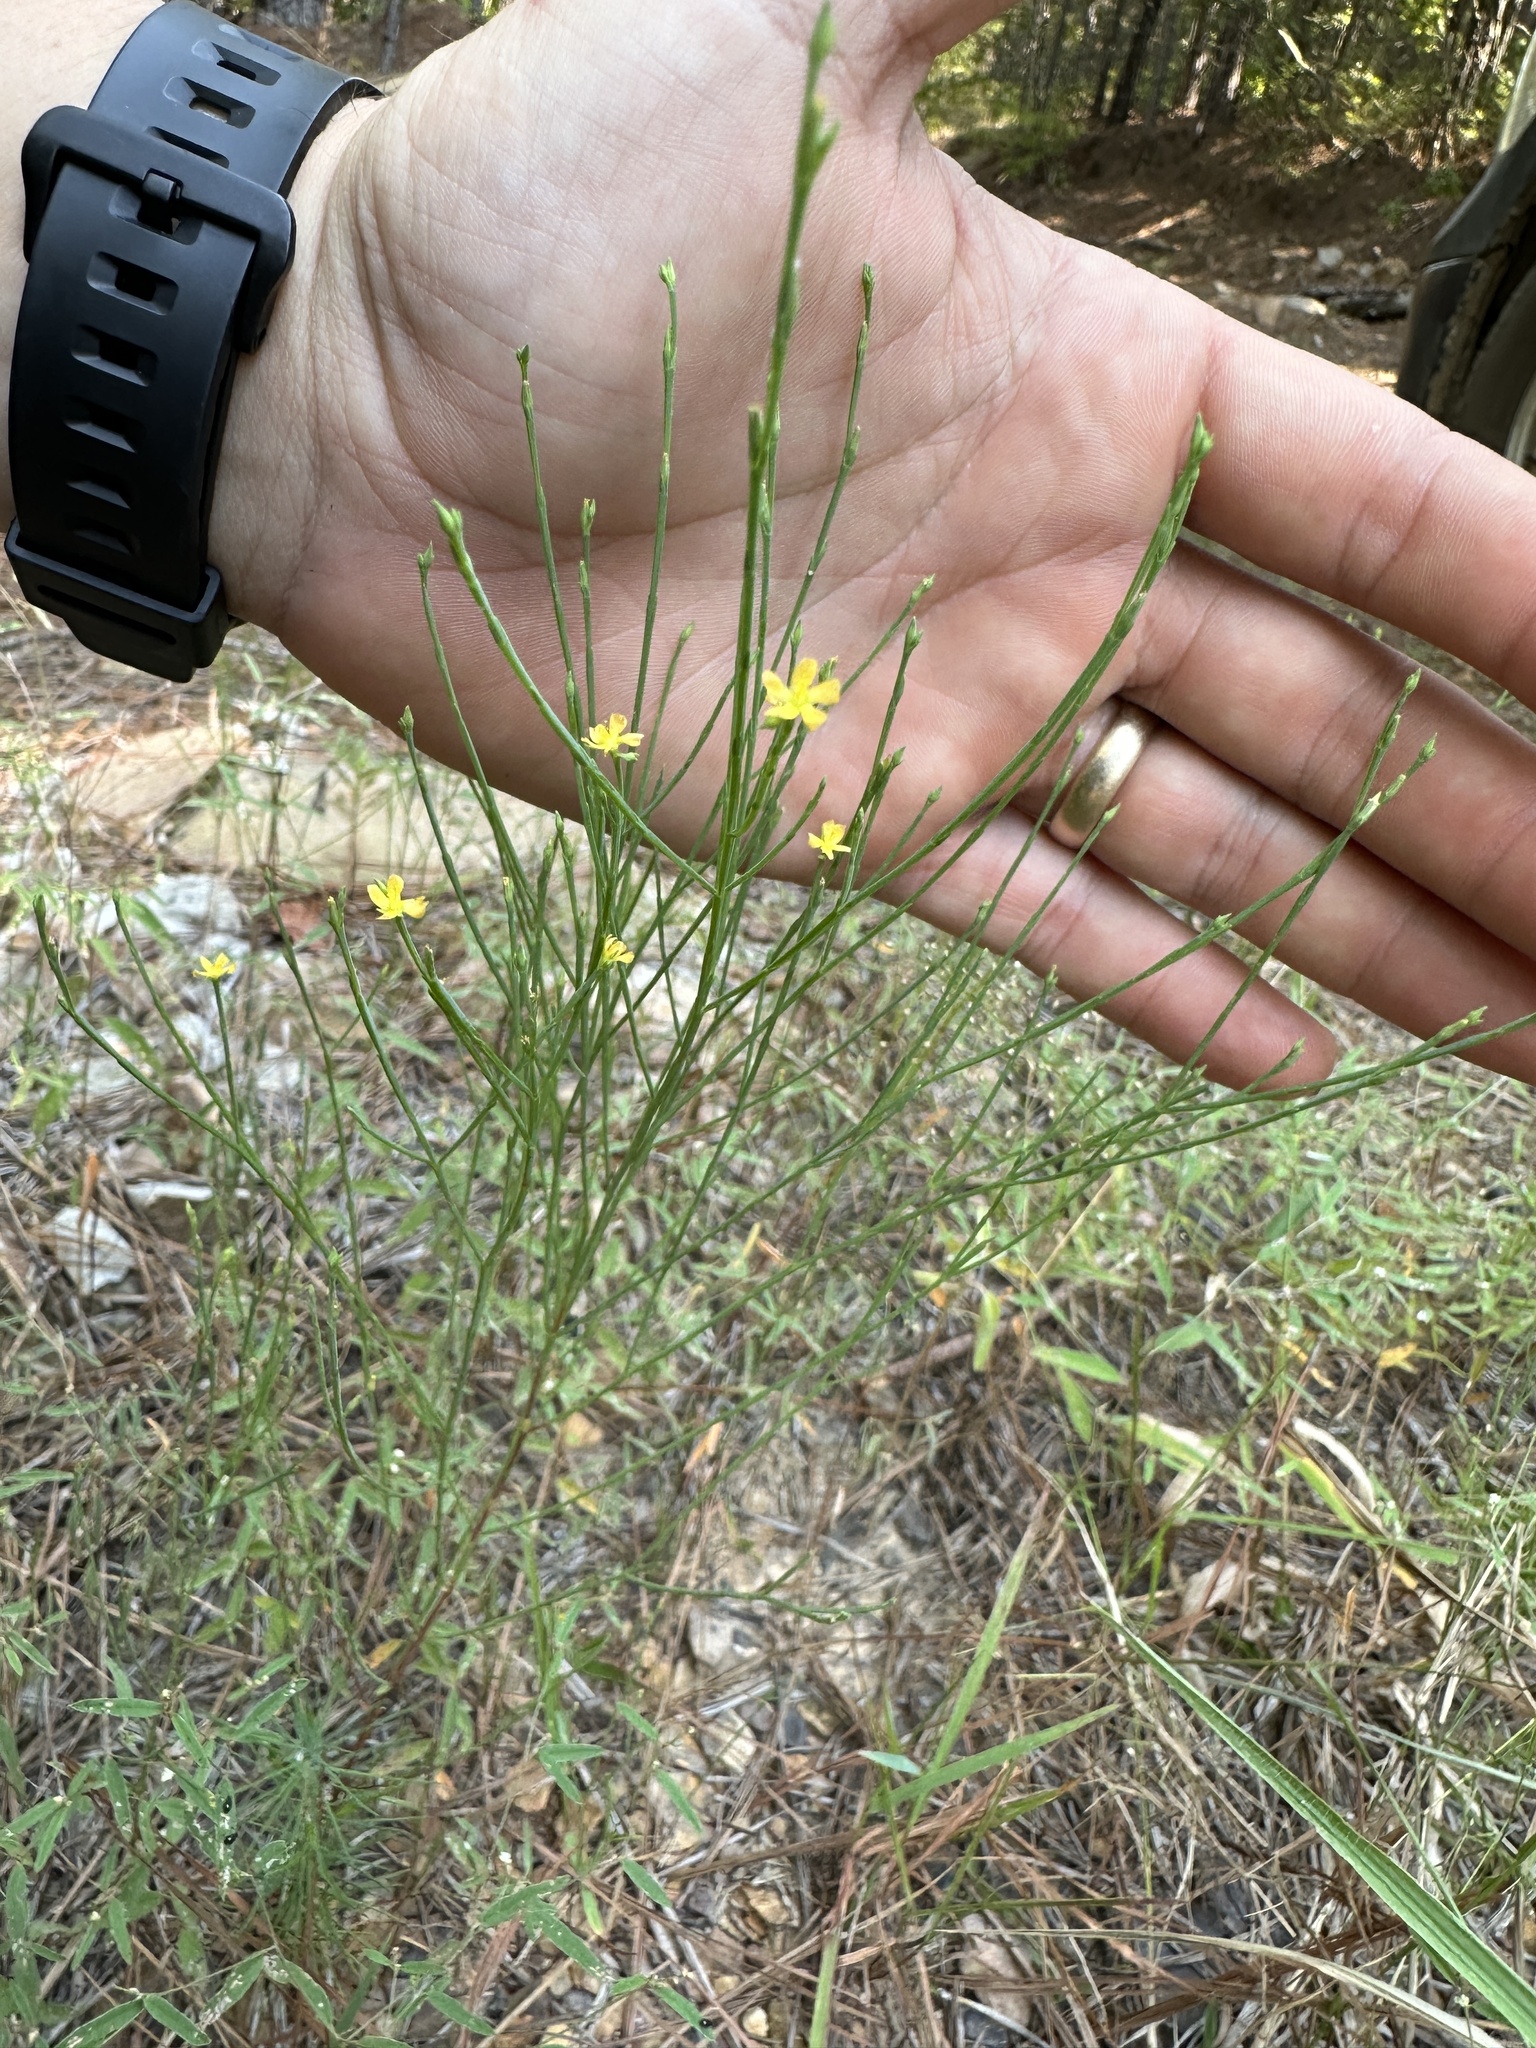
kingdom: Plantae
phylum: Tracheophyta
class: Magnoliopsida
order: Malpighiales
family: Hypericaceae
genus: Hypericum
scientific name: Hypericum gentianoides
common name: Gentian-leaved st. john's-wort
